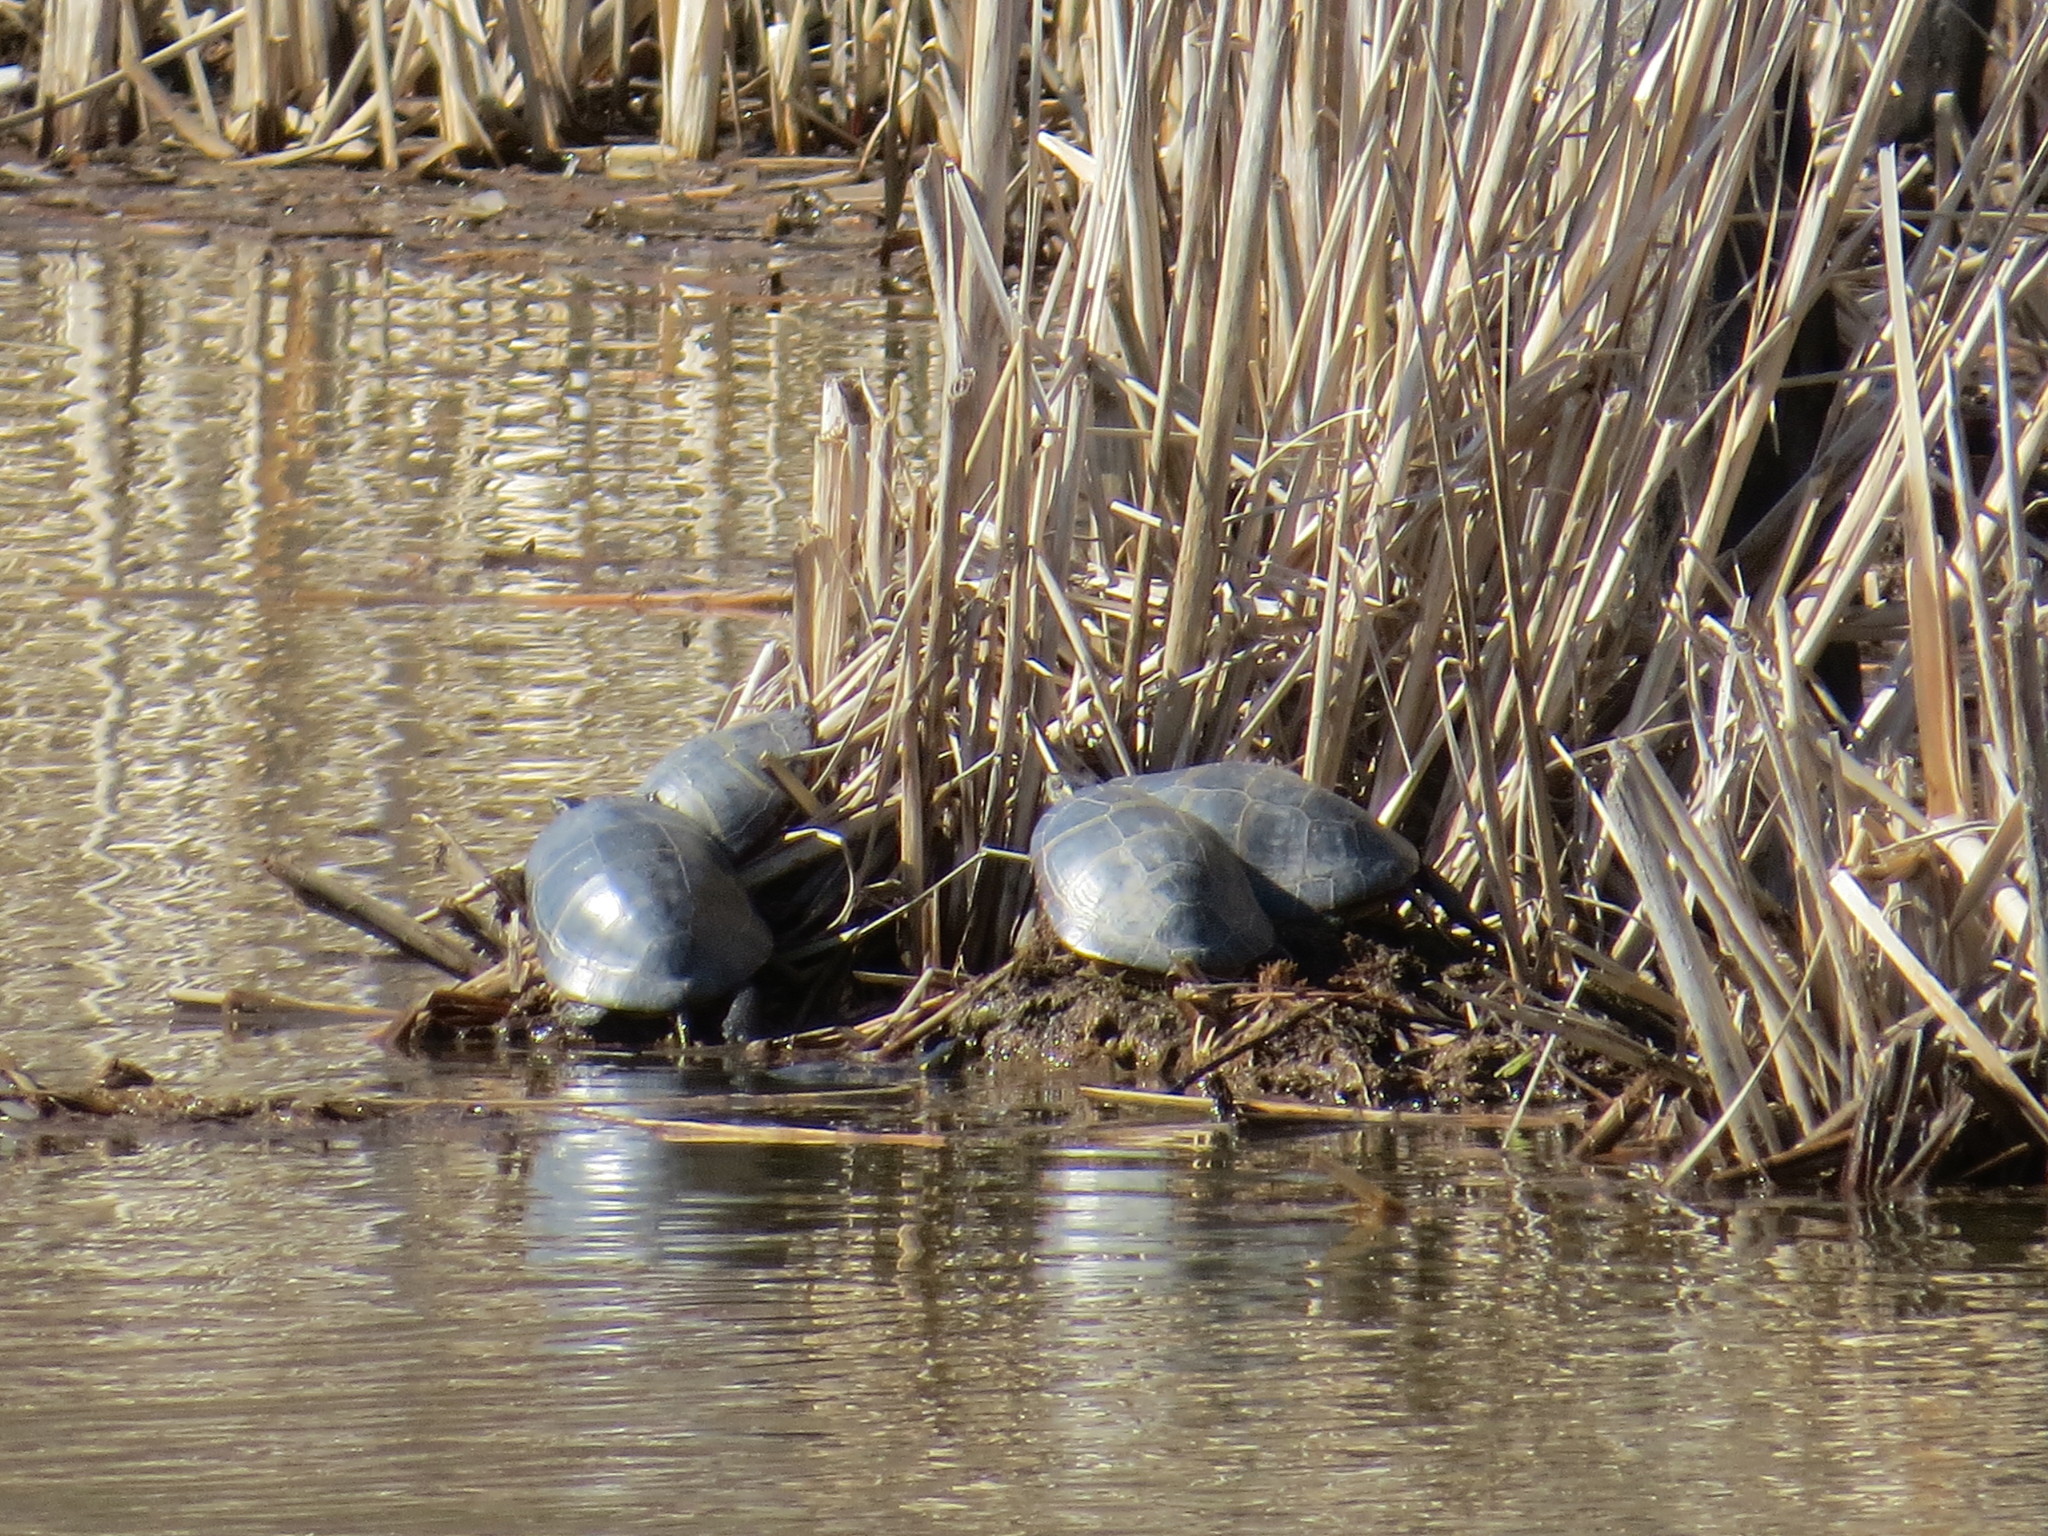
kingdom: Animalia
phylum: Chordata
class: Testudines
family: Emydidae
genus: Chrysemys
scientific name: Chrysemys picta
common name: Painted turtle
